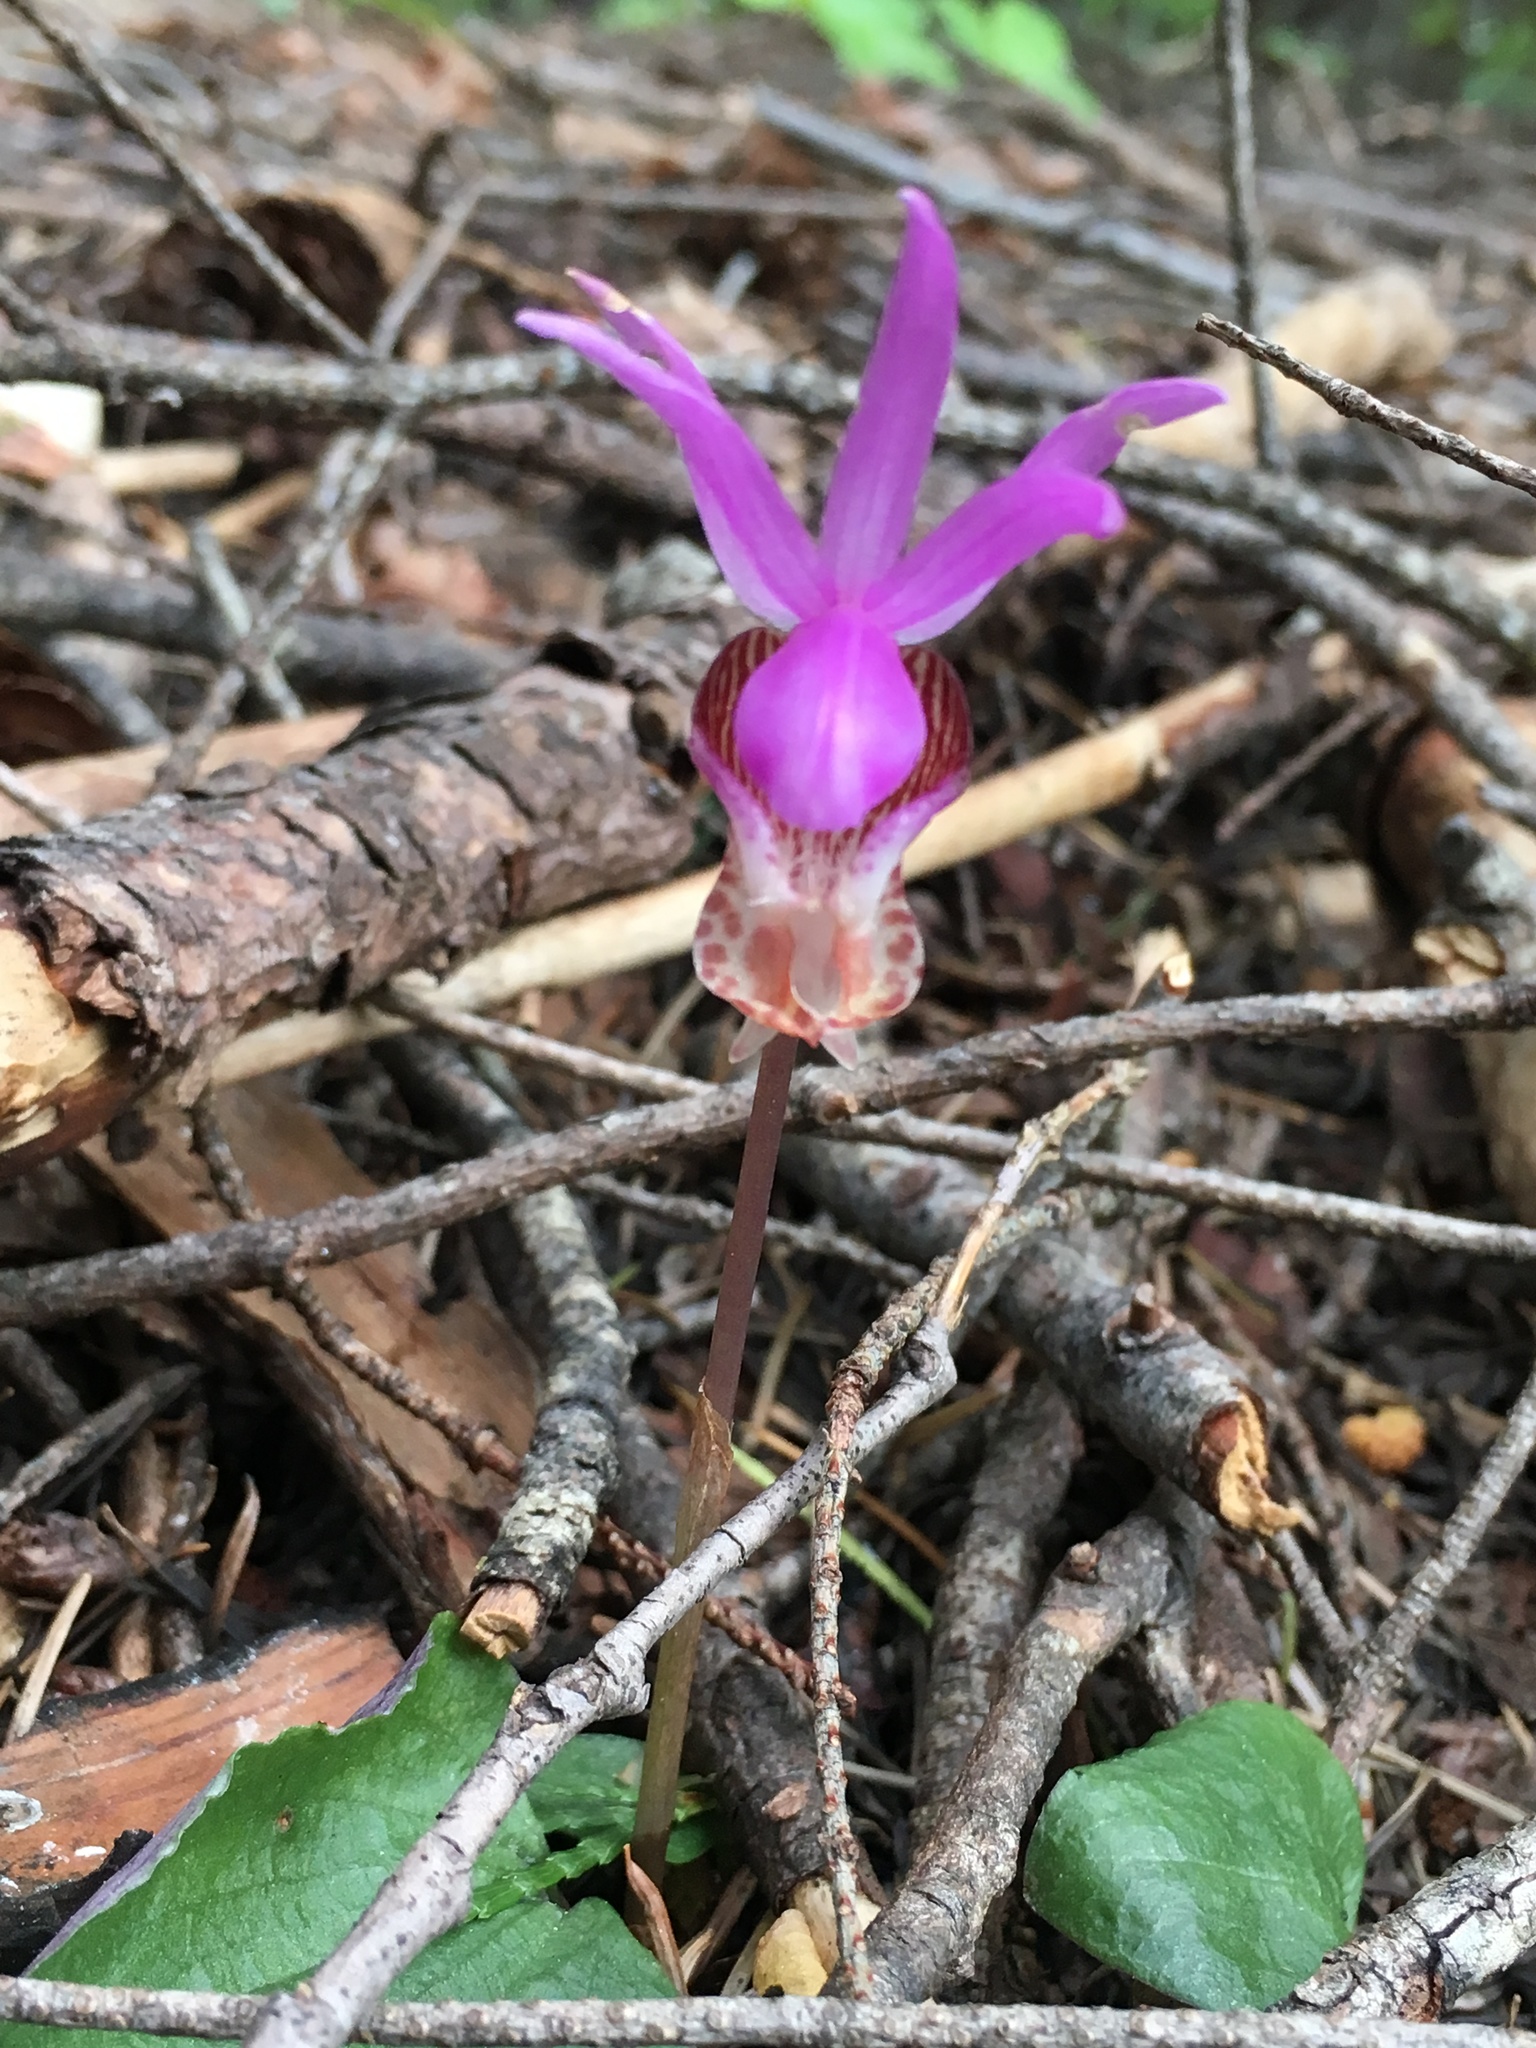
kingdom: Plantae
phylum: Tracheophyta
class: Liliopsida
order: Asparagales
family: Orchidaceae
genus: Calypso
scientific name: Calypso bulbosa
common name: Calypso
